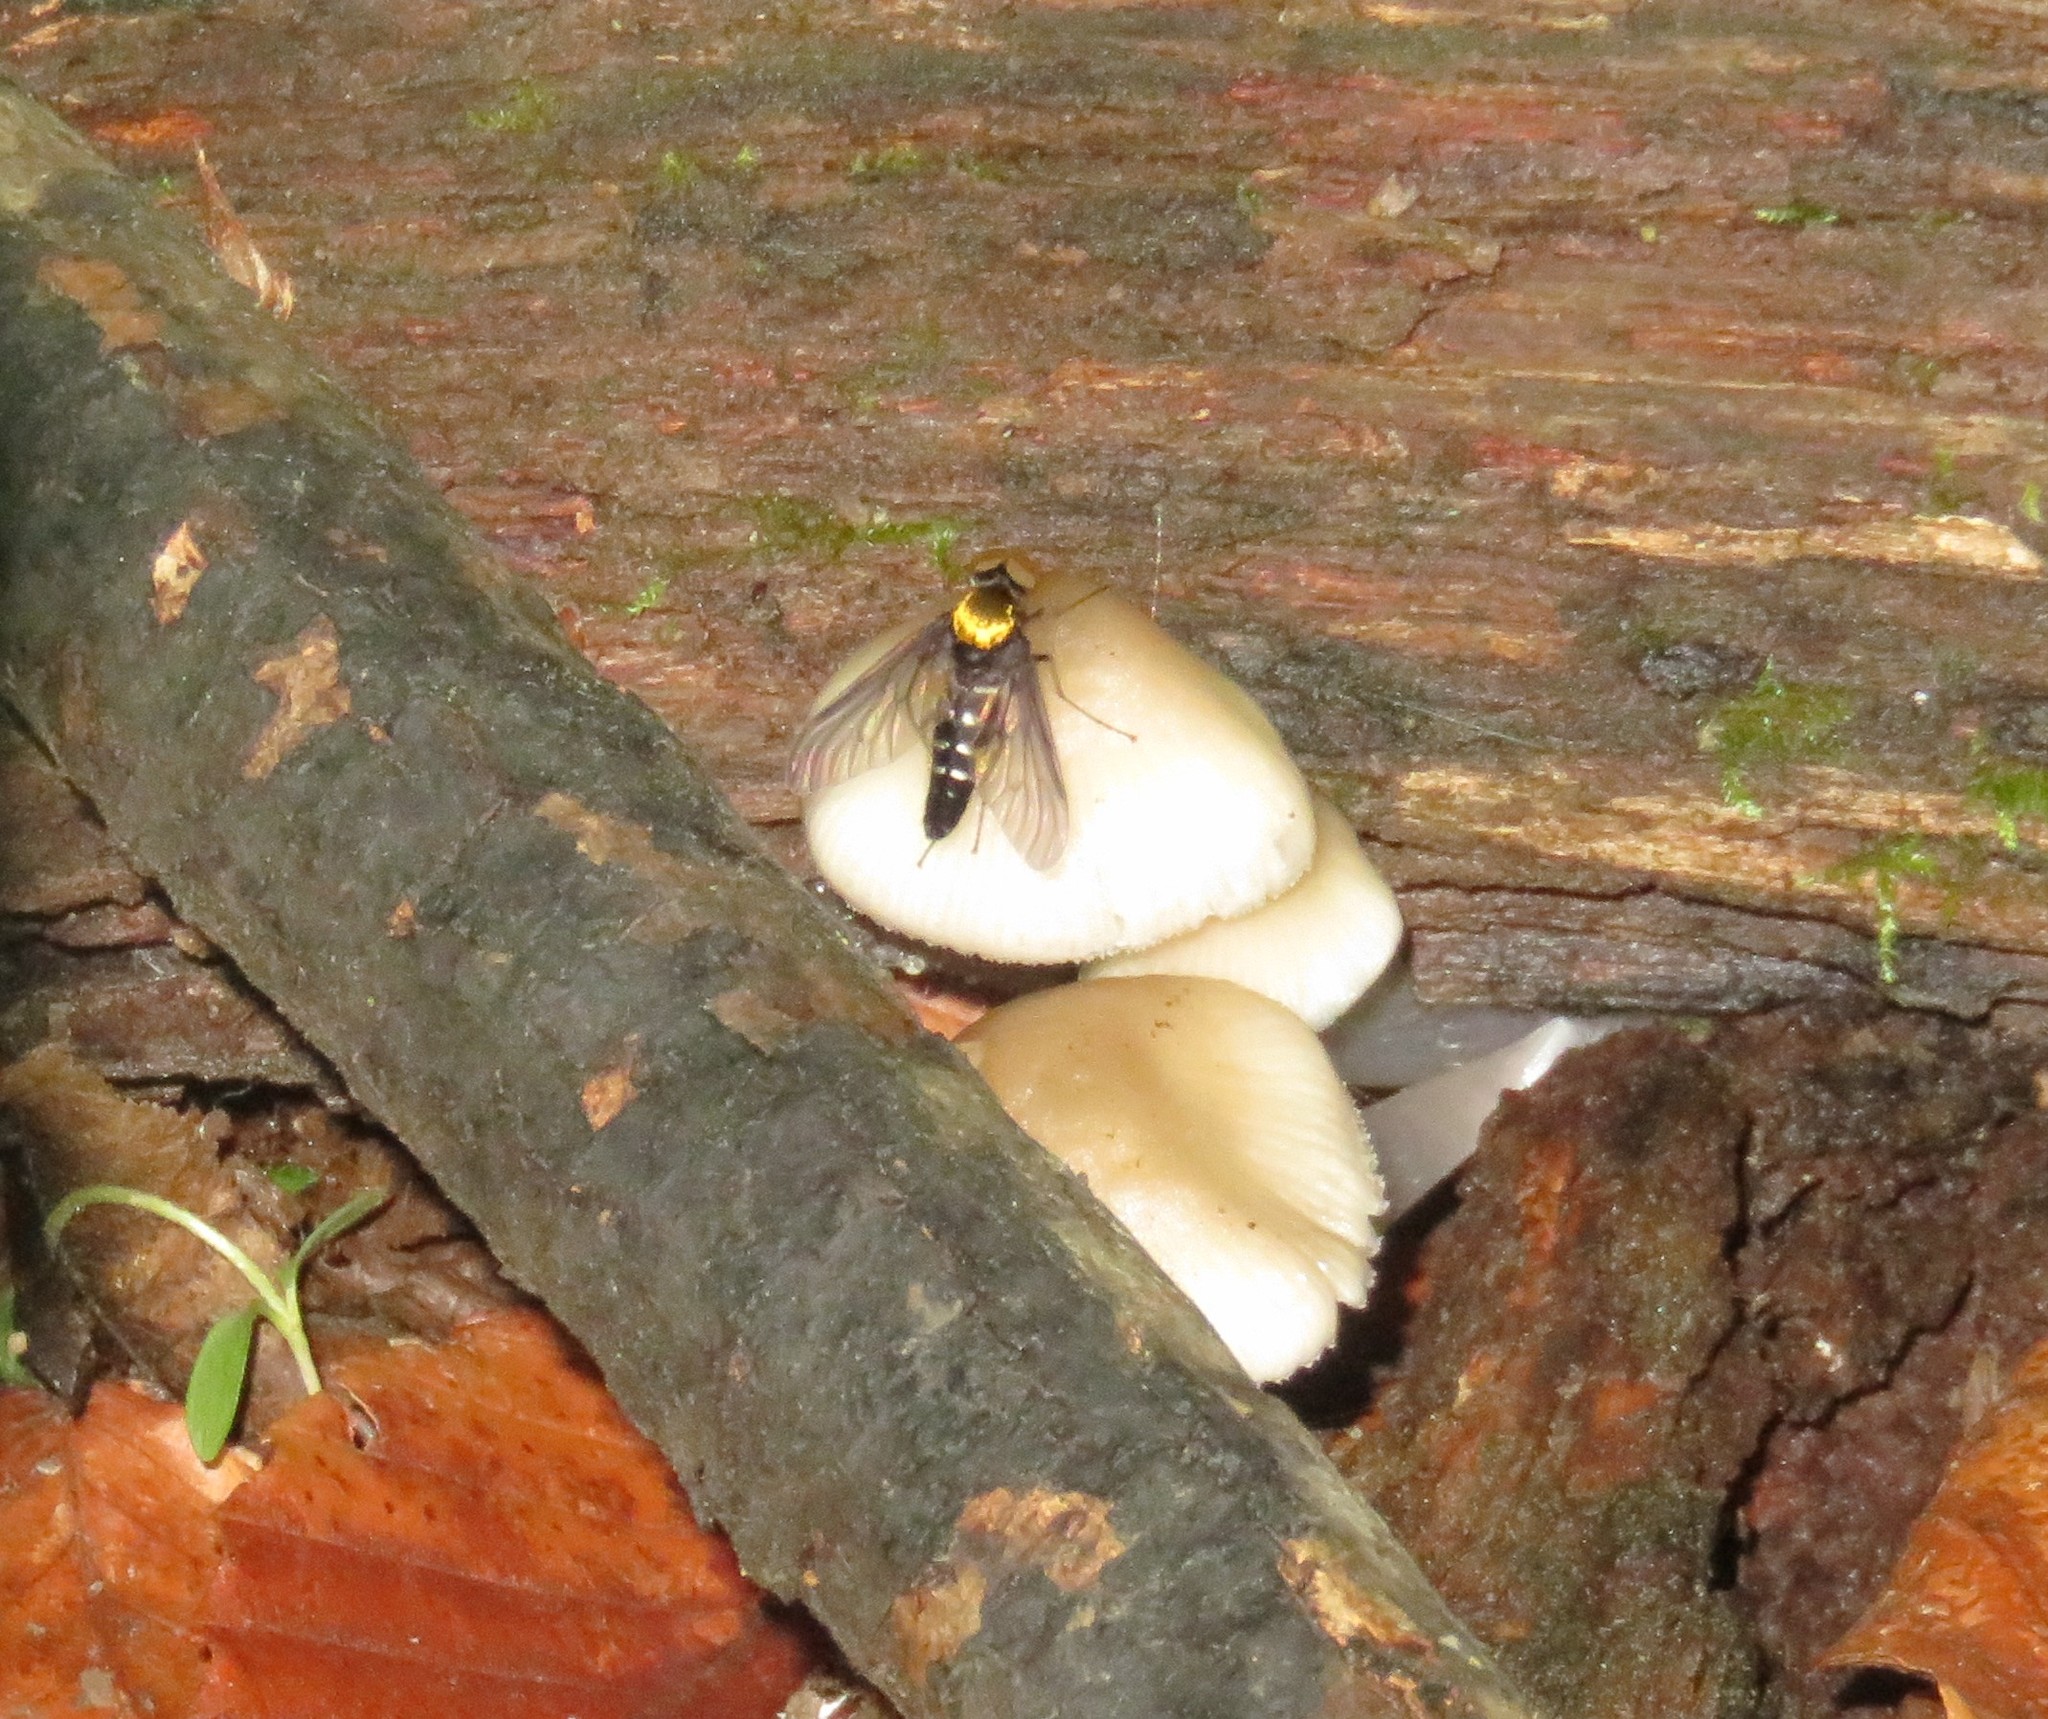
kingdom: Animalia
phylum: Arthropoda
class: Insecta
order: Diptera
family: Rhagionidae
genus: Chrysopilus
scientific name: Chrysopilus thoracicus
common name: Golden-backed snipe fly
